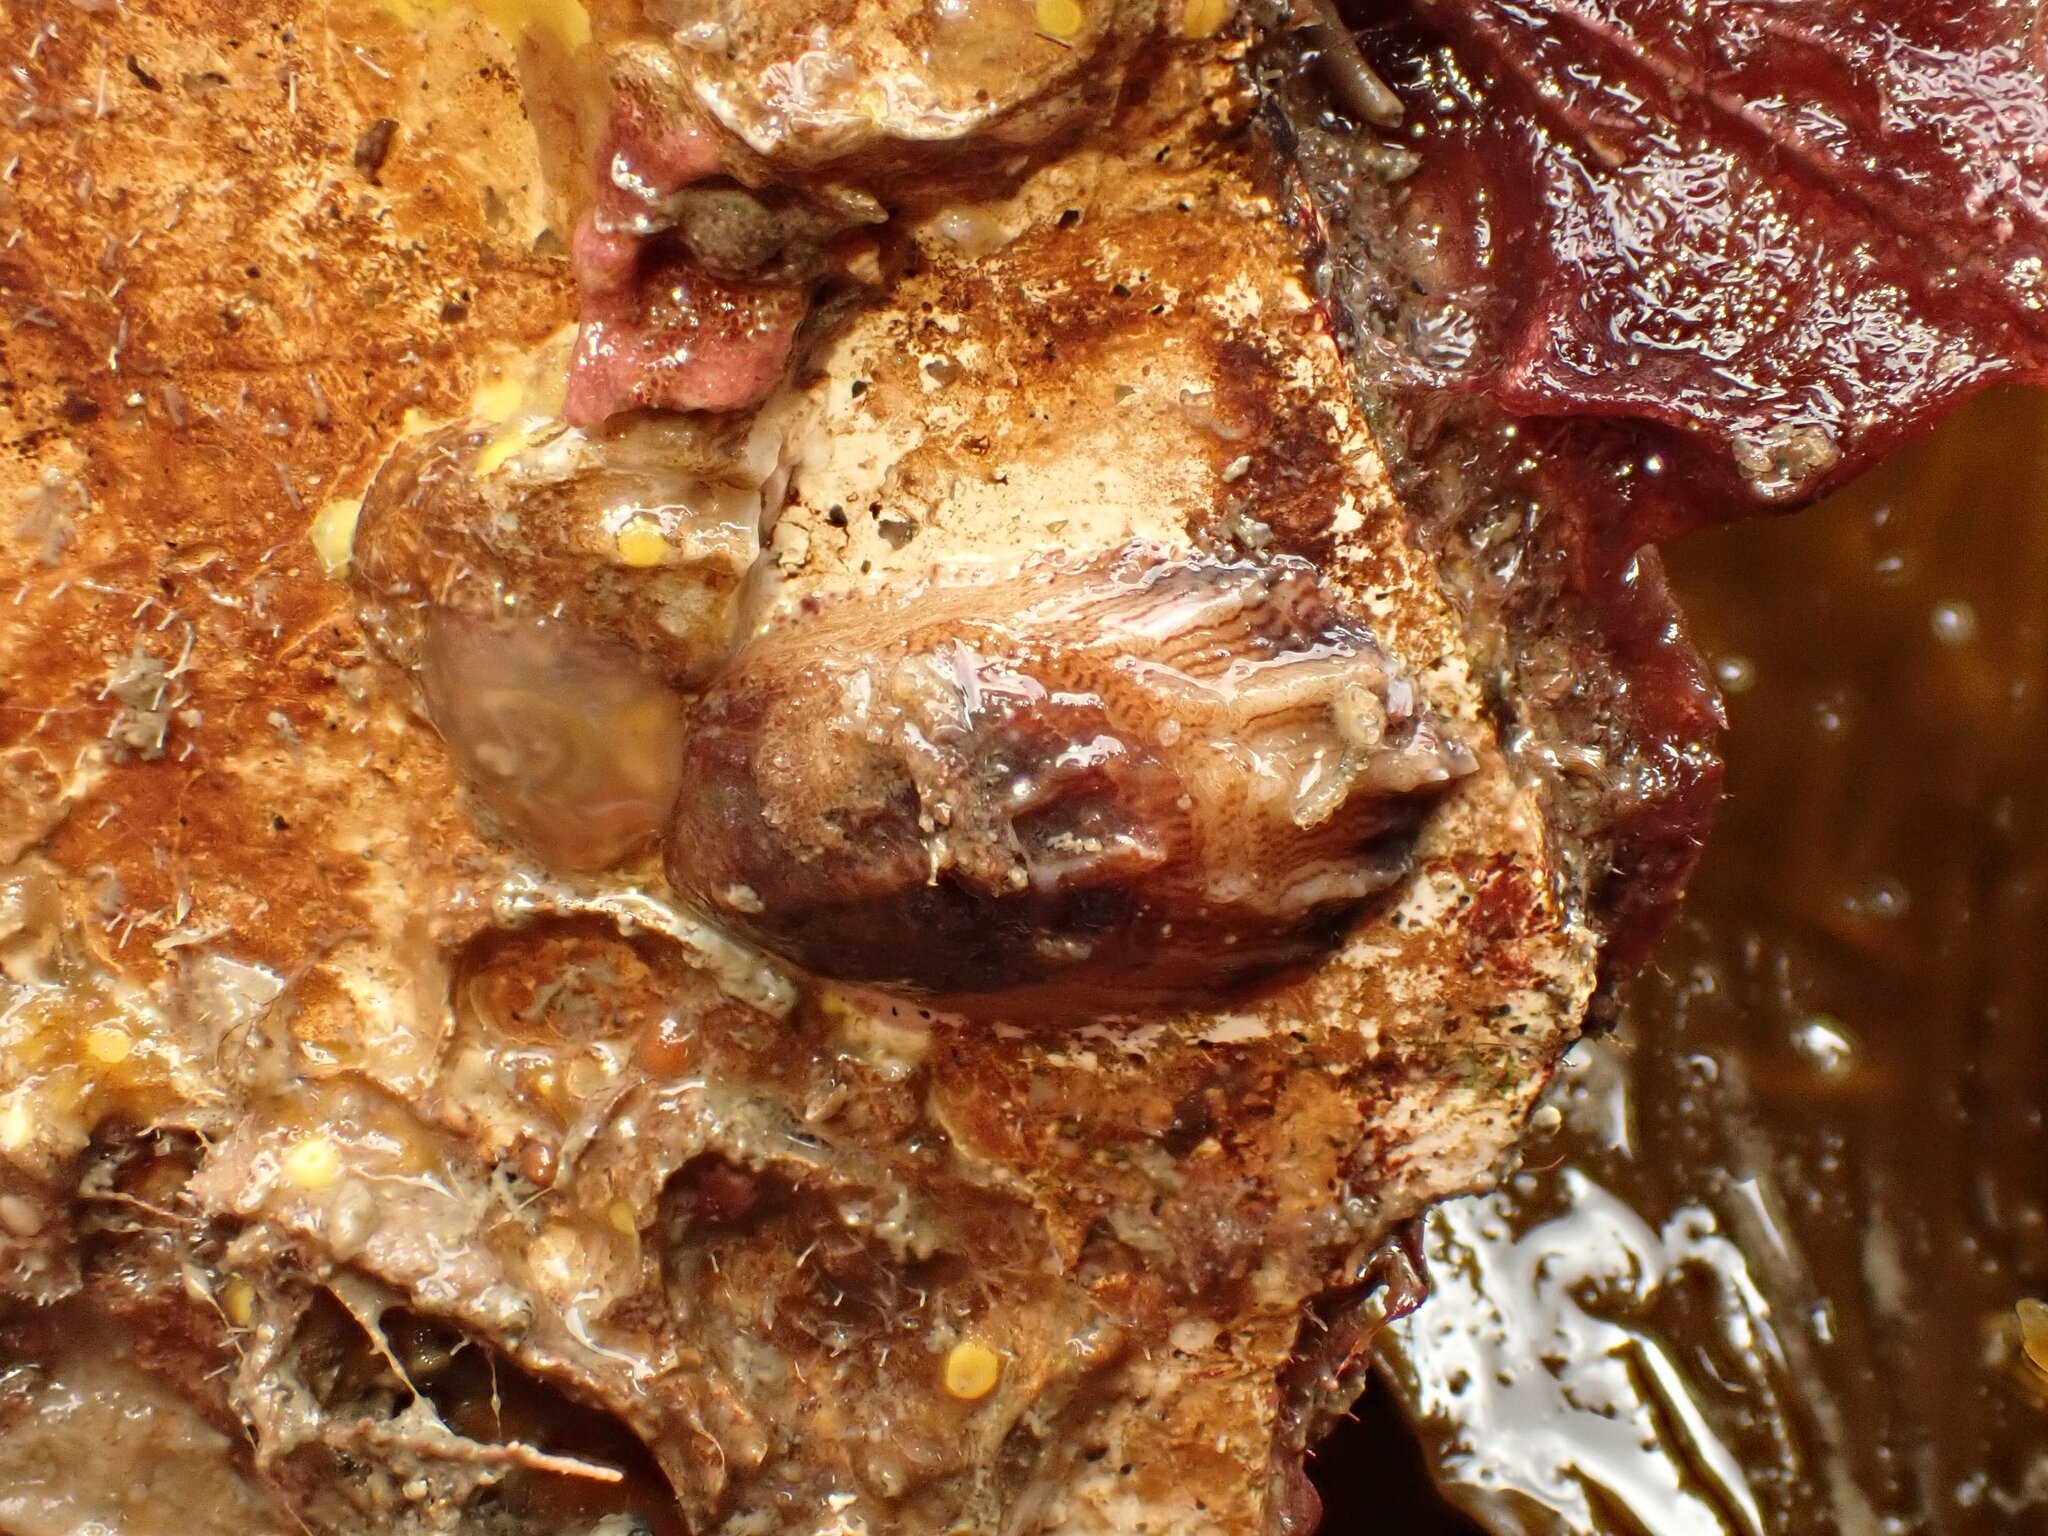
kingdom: Animalia
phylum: Mollusca
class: Gastropoda
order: Littorinimorpha
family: Calyptraeidae
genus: Maoricrypta
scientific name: Maoricrypta costata
